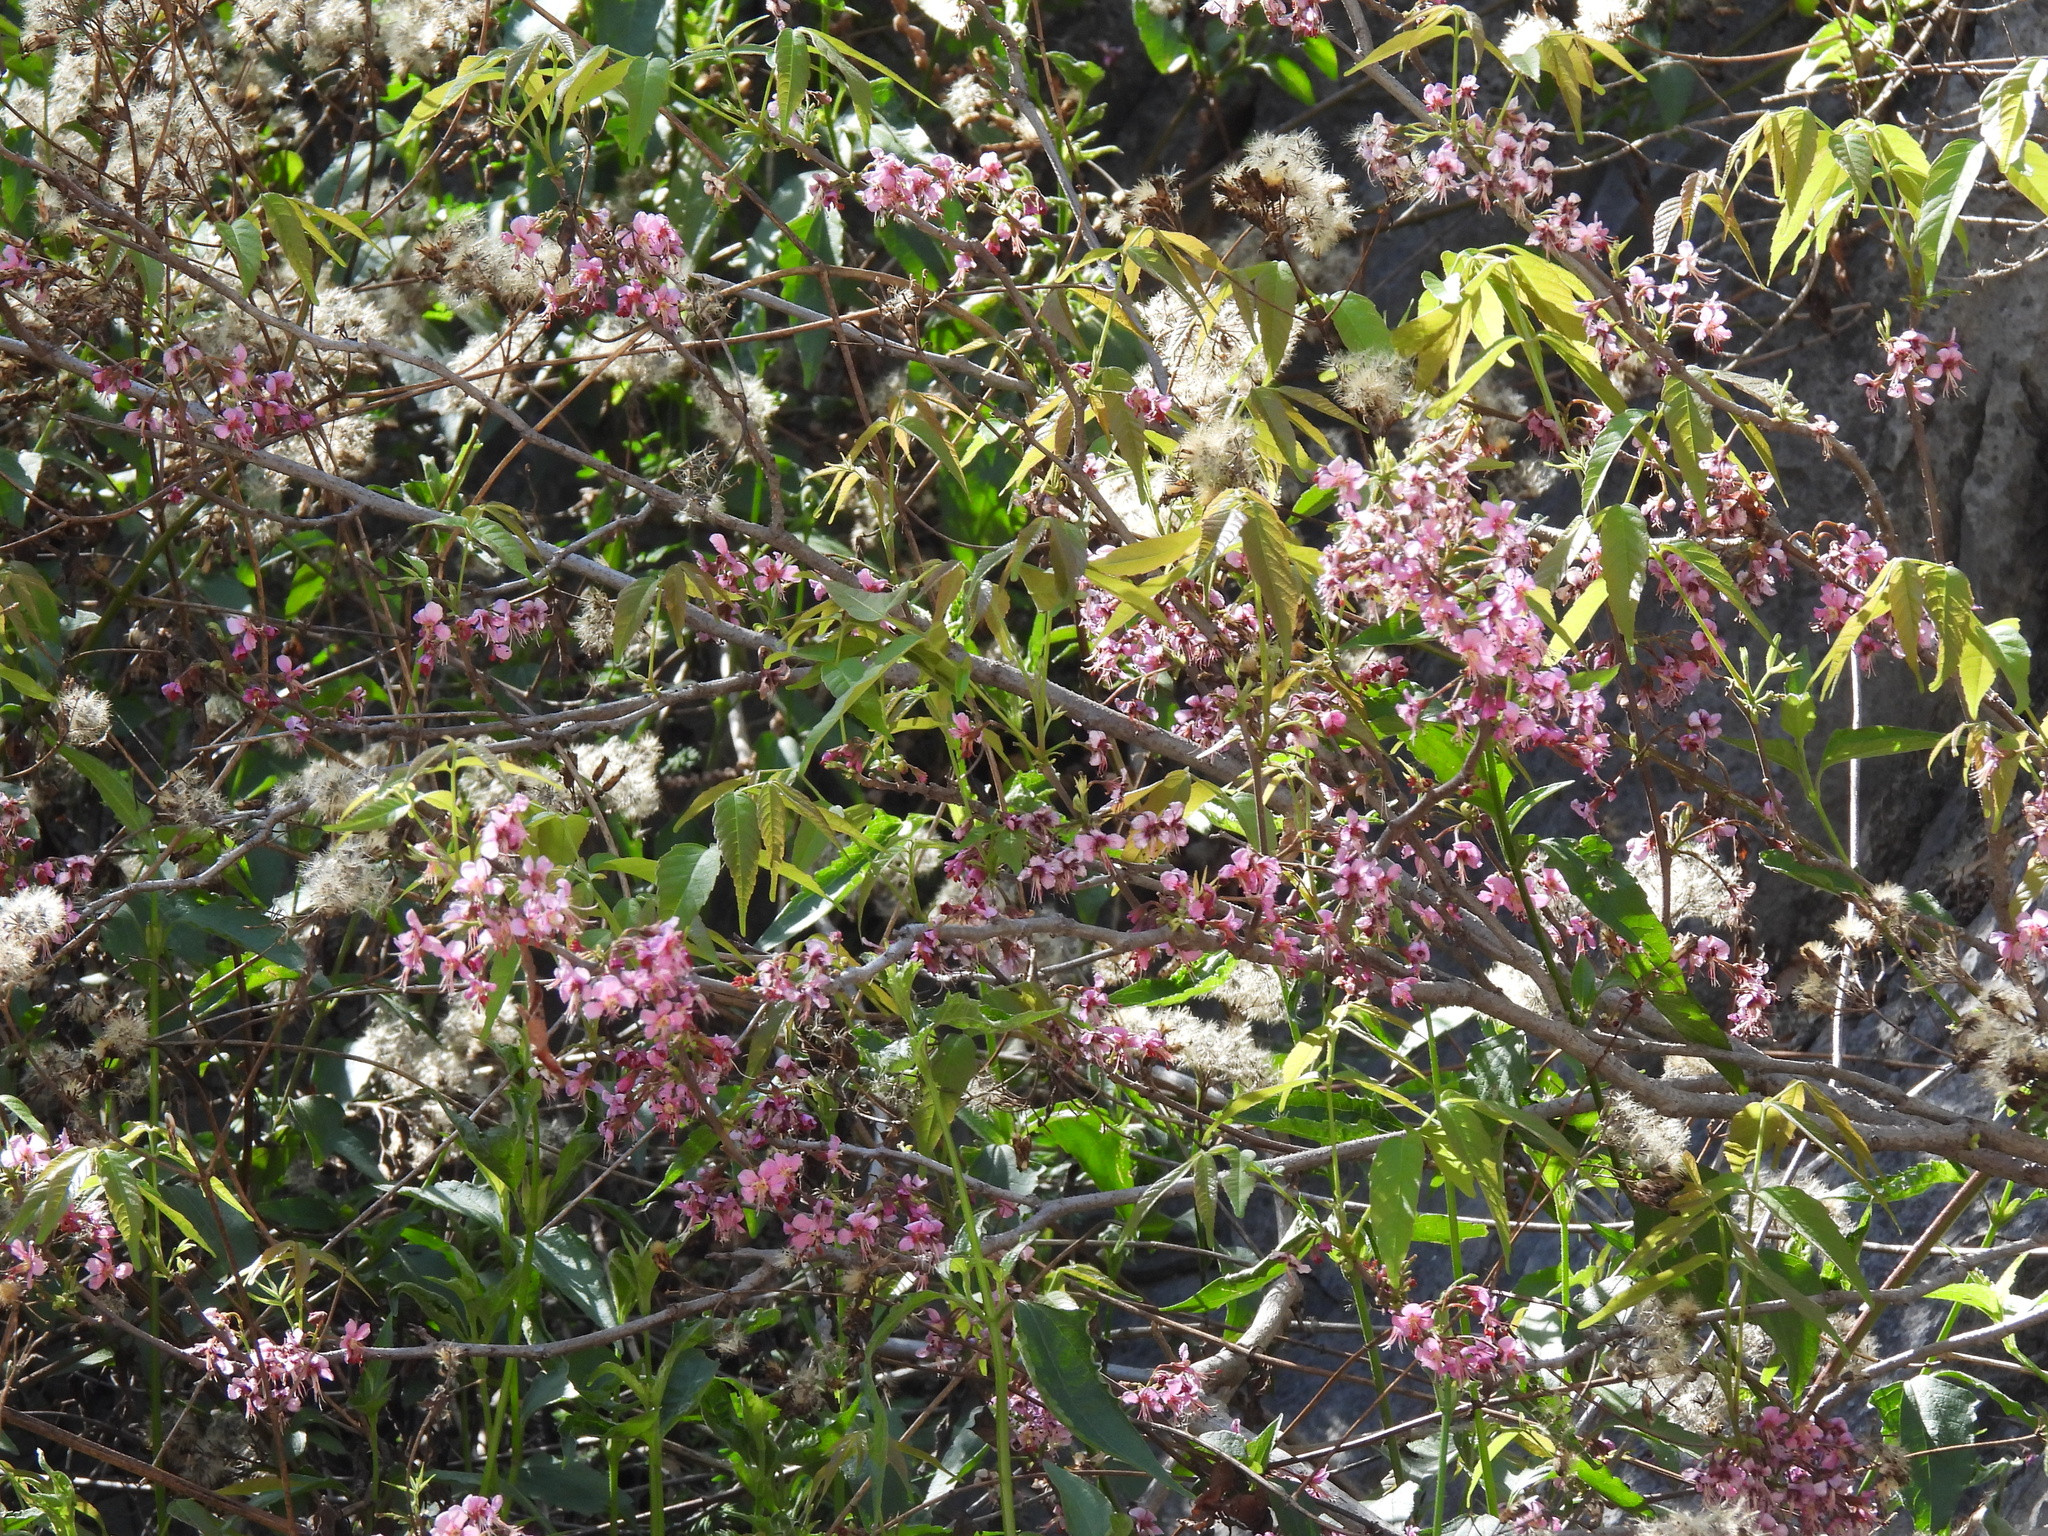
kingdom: Plantae
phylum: Tracheophyta
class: Magnoliopsida
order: Sapindales
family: Sapindaceae
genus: Ungnadia
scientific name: Ungnadia speciosa
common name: Texas-buckeye
